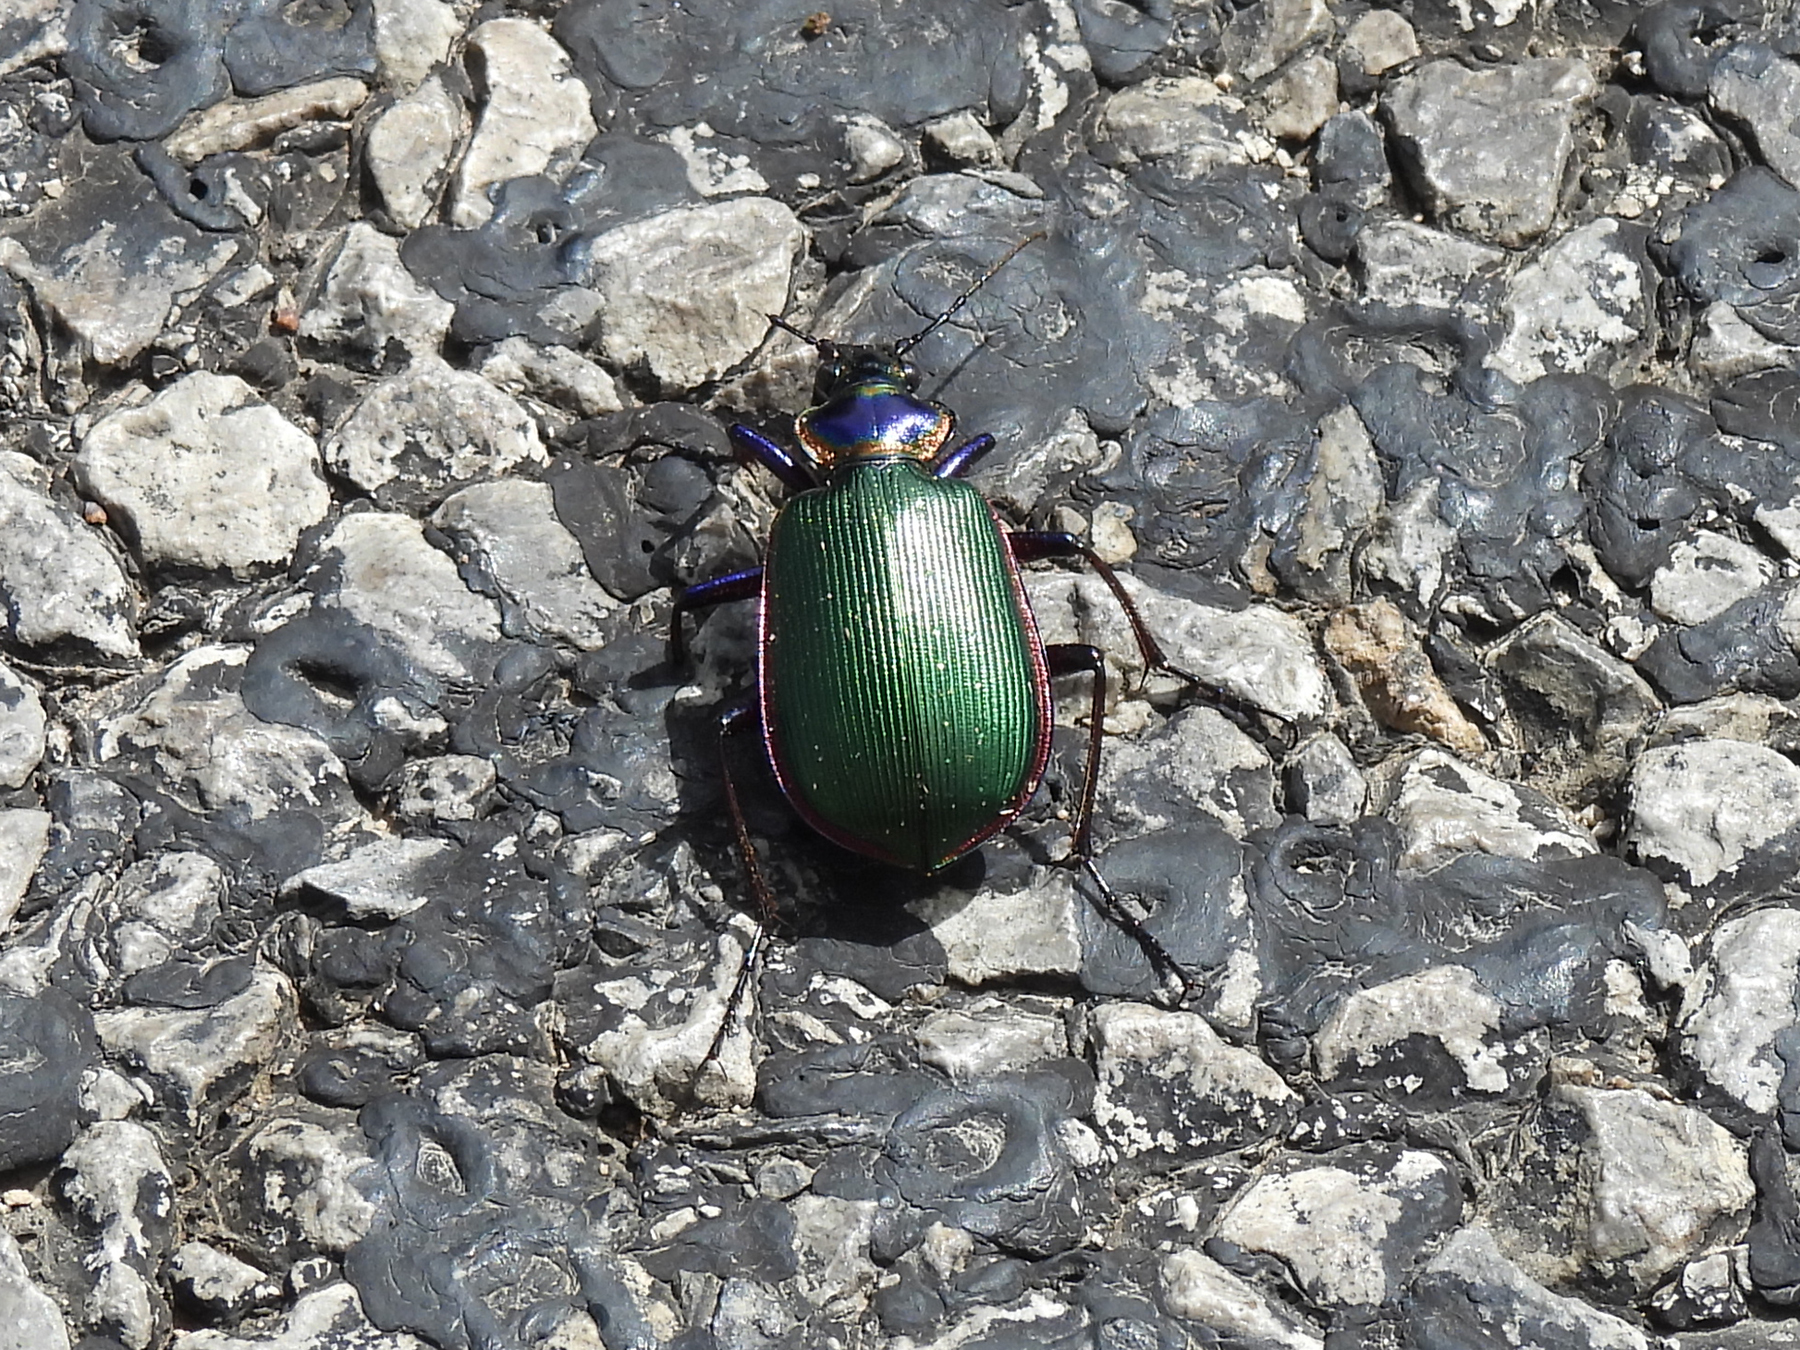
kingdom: Animalia
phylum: Arthropoda
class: Insecta
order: Coleoptera
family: Carabidae
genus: Calosoma
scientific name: Calosoma scrutator
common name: Fiery searcher beetle
